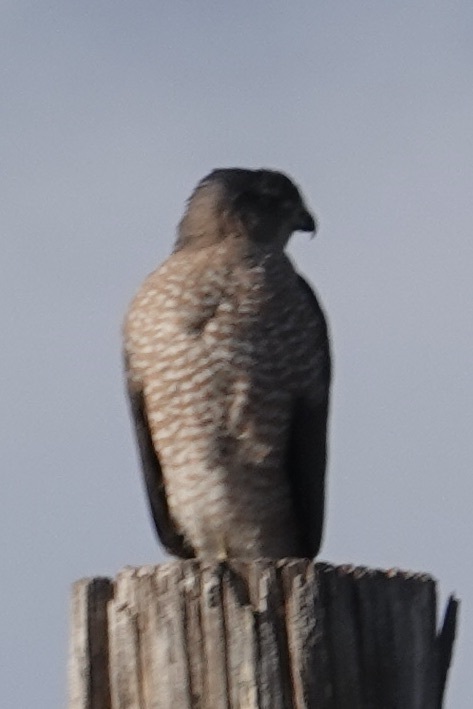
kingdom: Animalia
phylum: Chordata
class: Aves
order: Accipitriformes
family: Accipitridae
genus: Accipiter
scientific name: Accipiter cooperii
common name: Cooper's hawk
